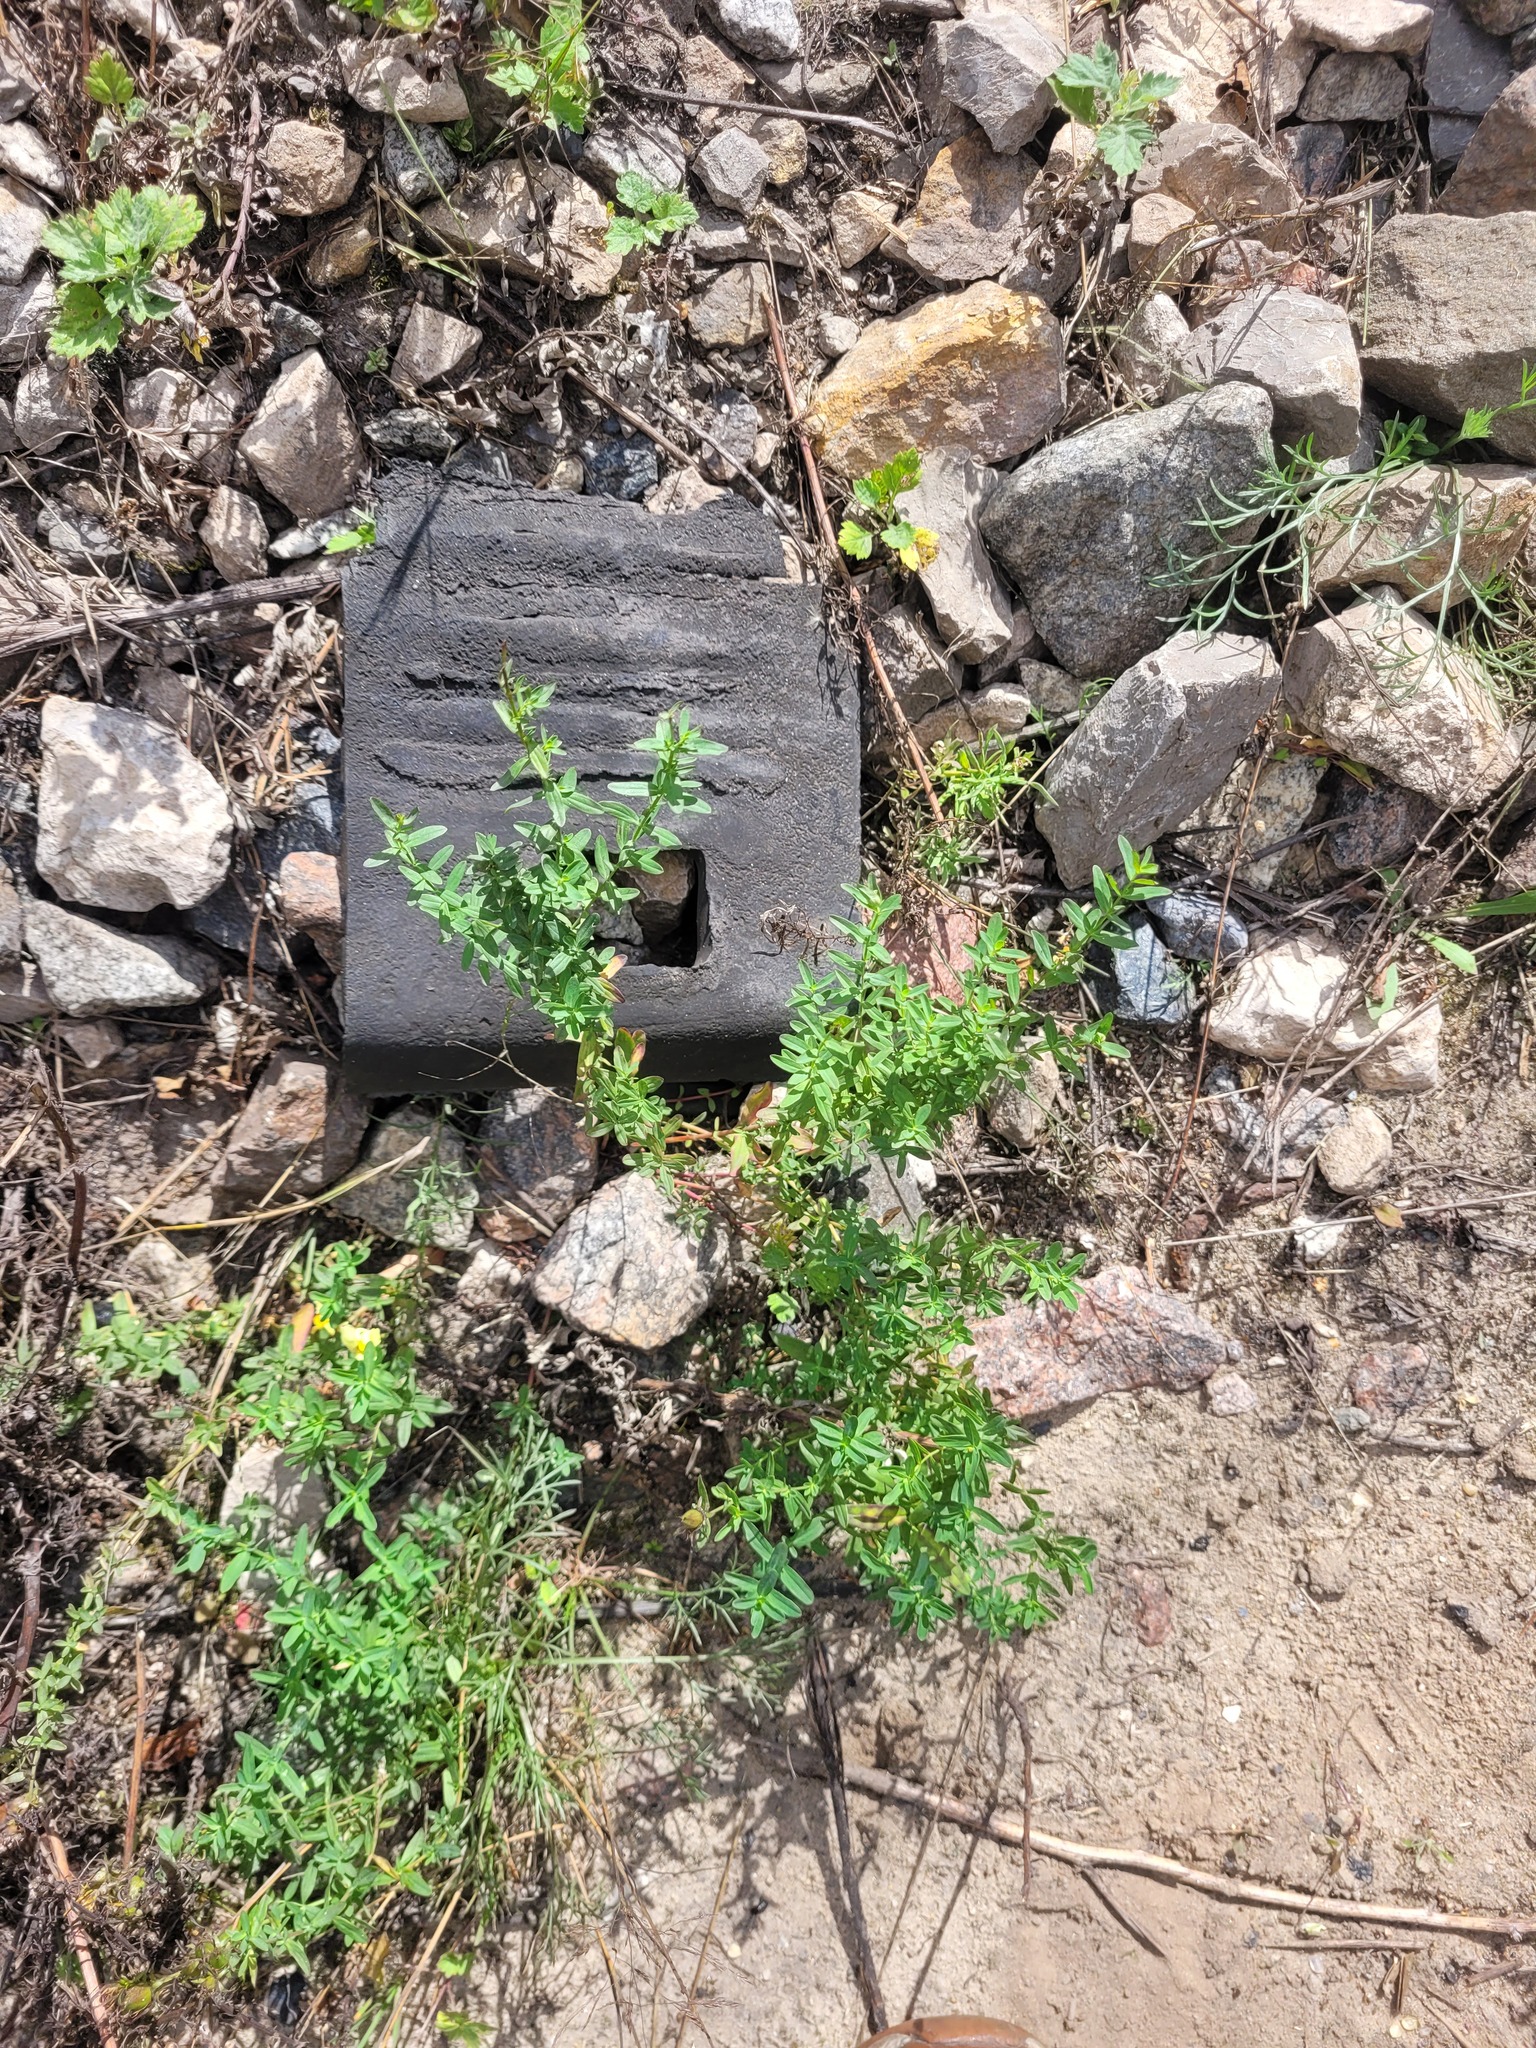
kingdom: Plantae
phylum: Tracheophyta
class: Magnoliopsida
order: Malpighiales
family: Hypericaceae
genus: Hypericum
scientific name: Hypericum perforatum
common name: Common st. johnswort
